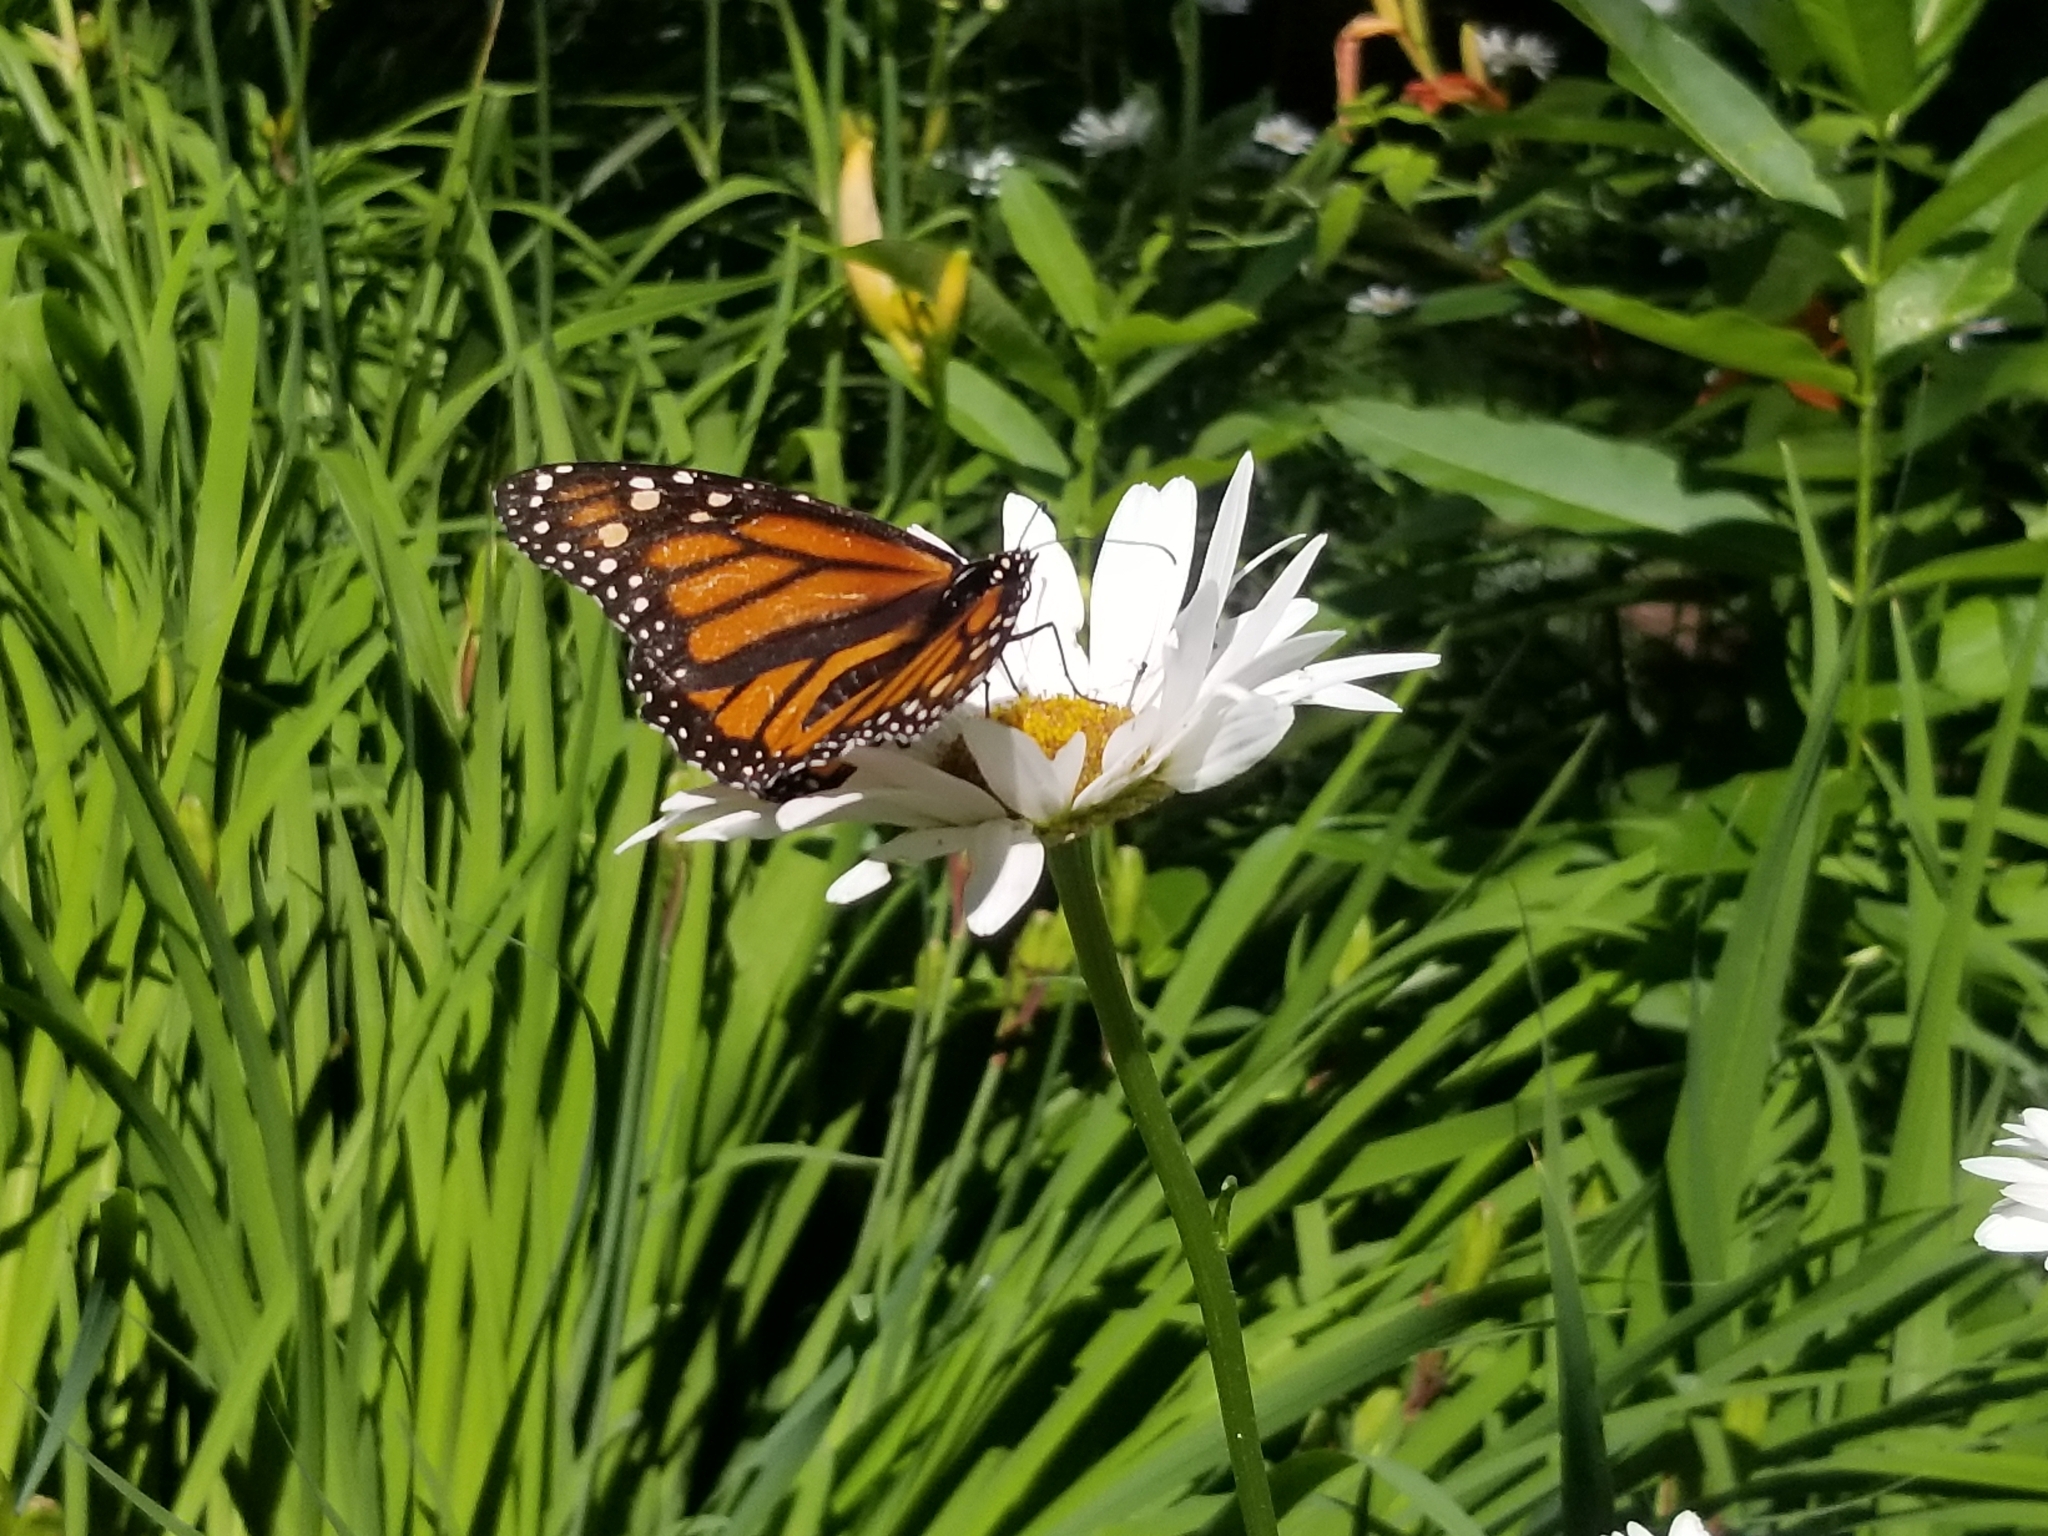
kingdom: Animalia
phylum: Arthropoda
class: Insecta
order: Lepidoptera
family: Nymphalidae
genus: Danaus
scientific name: Danaus plexippus
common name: Monarch
